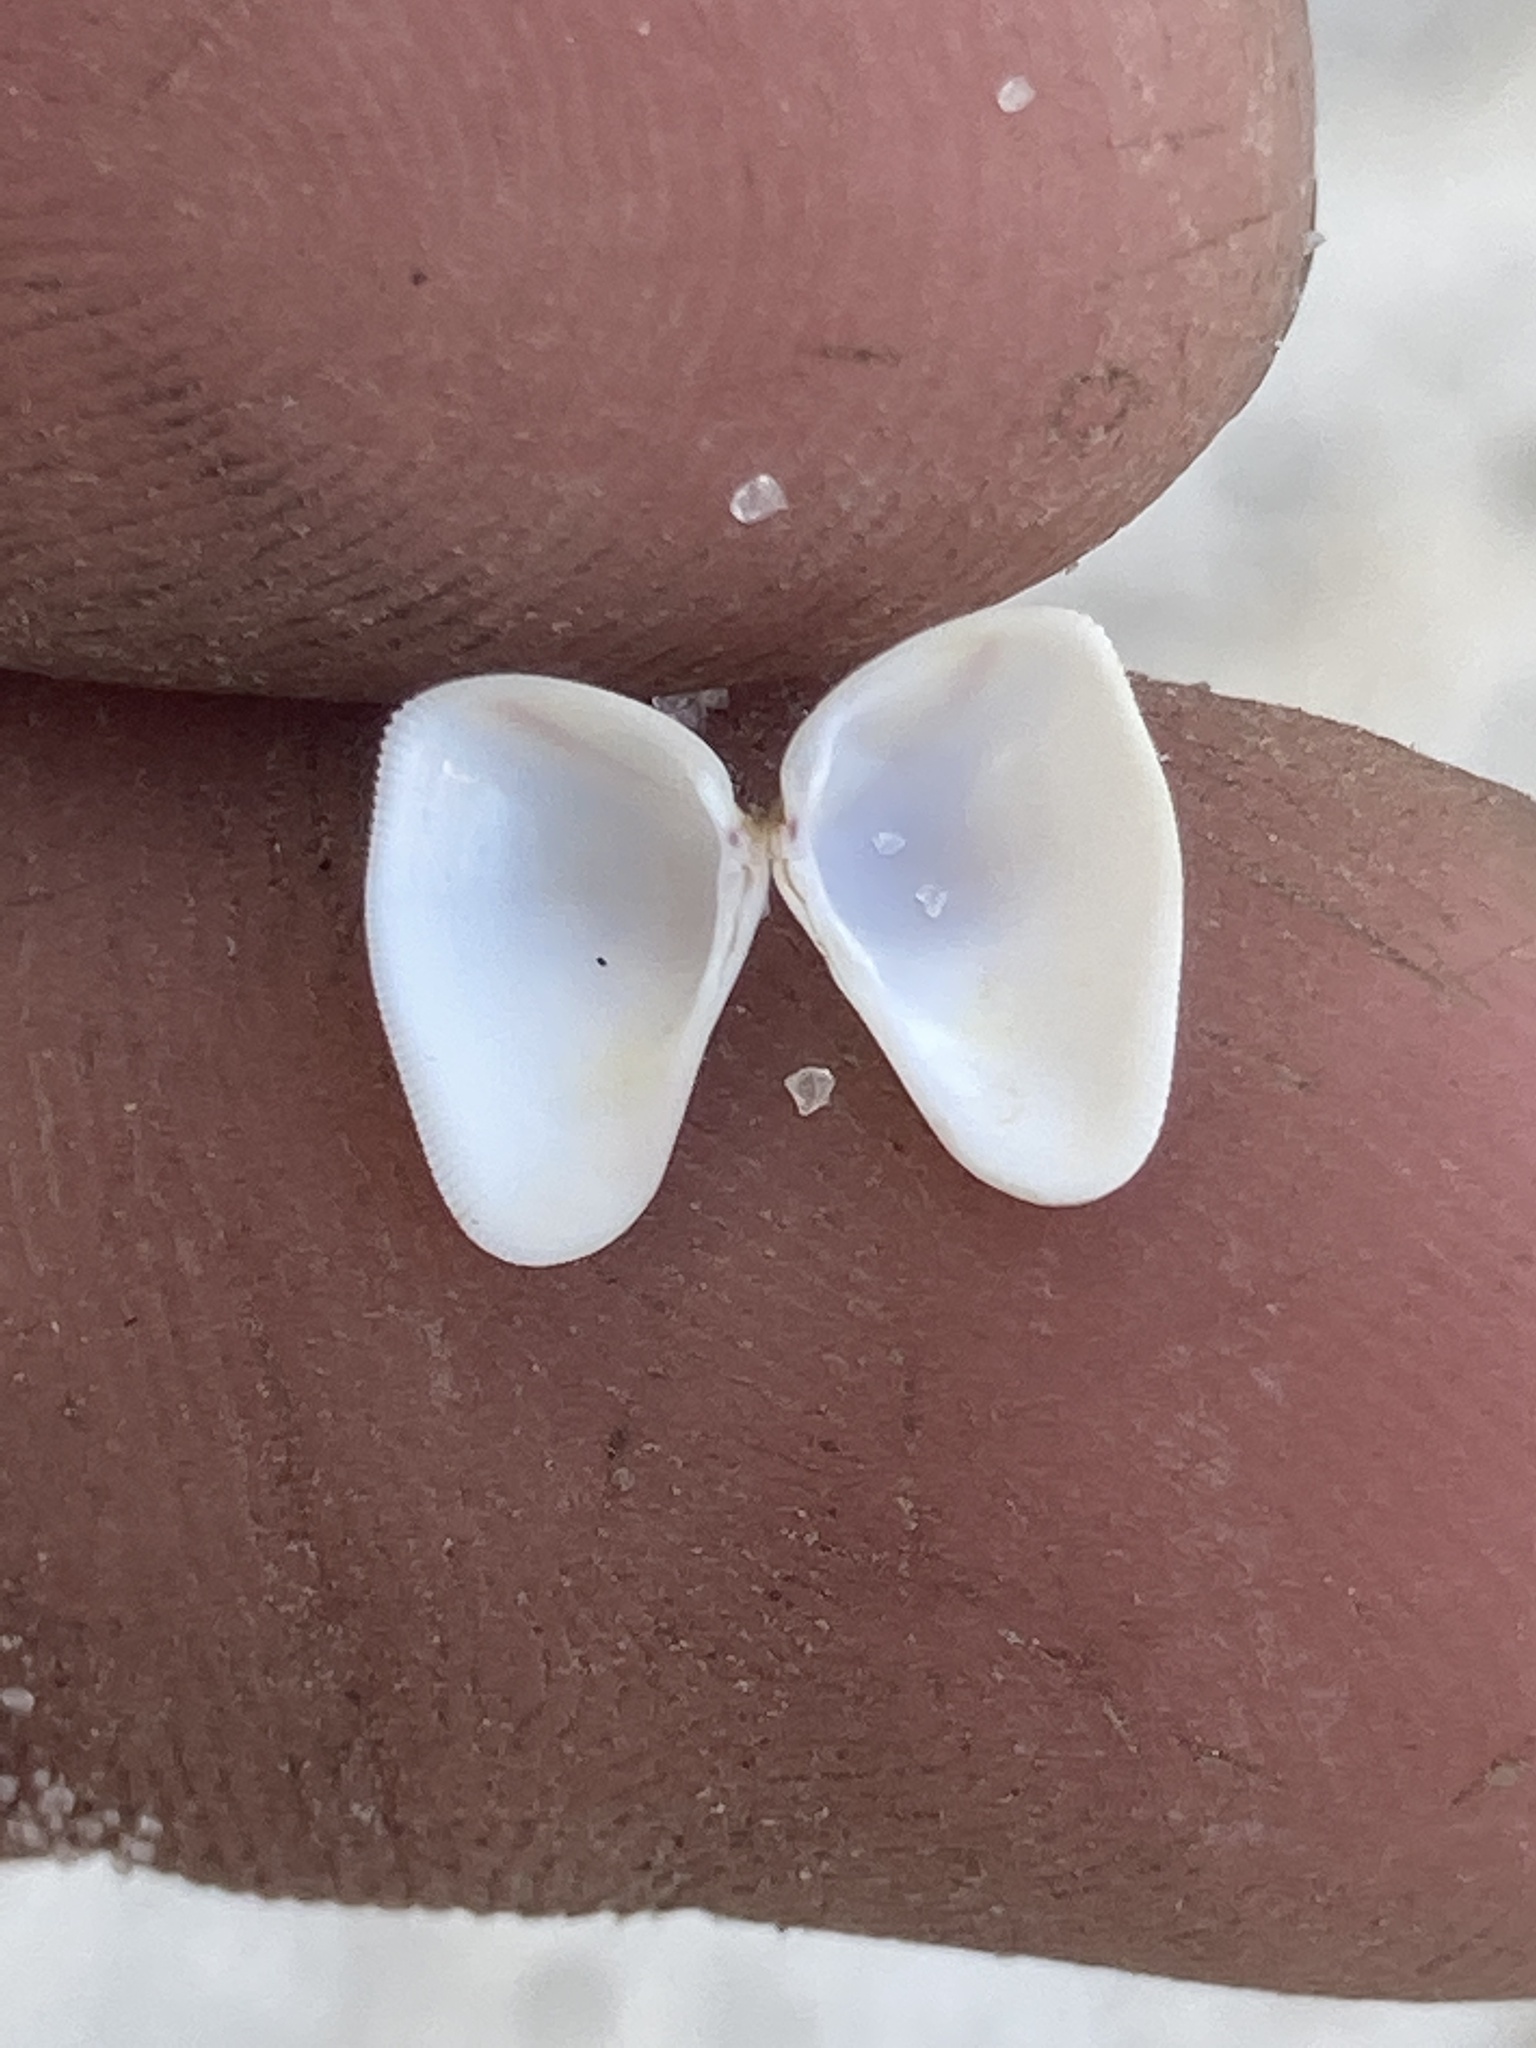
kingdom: Animalia
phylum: Mollusca
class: Bivalvia
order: Cardiida
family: Donacidae
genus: Donax
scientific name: Donax variabilis
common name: Butterfly shell
